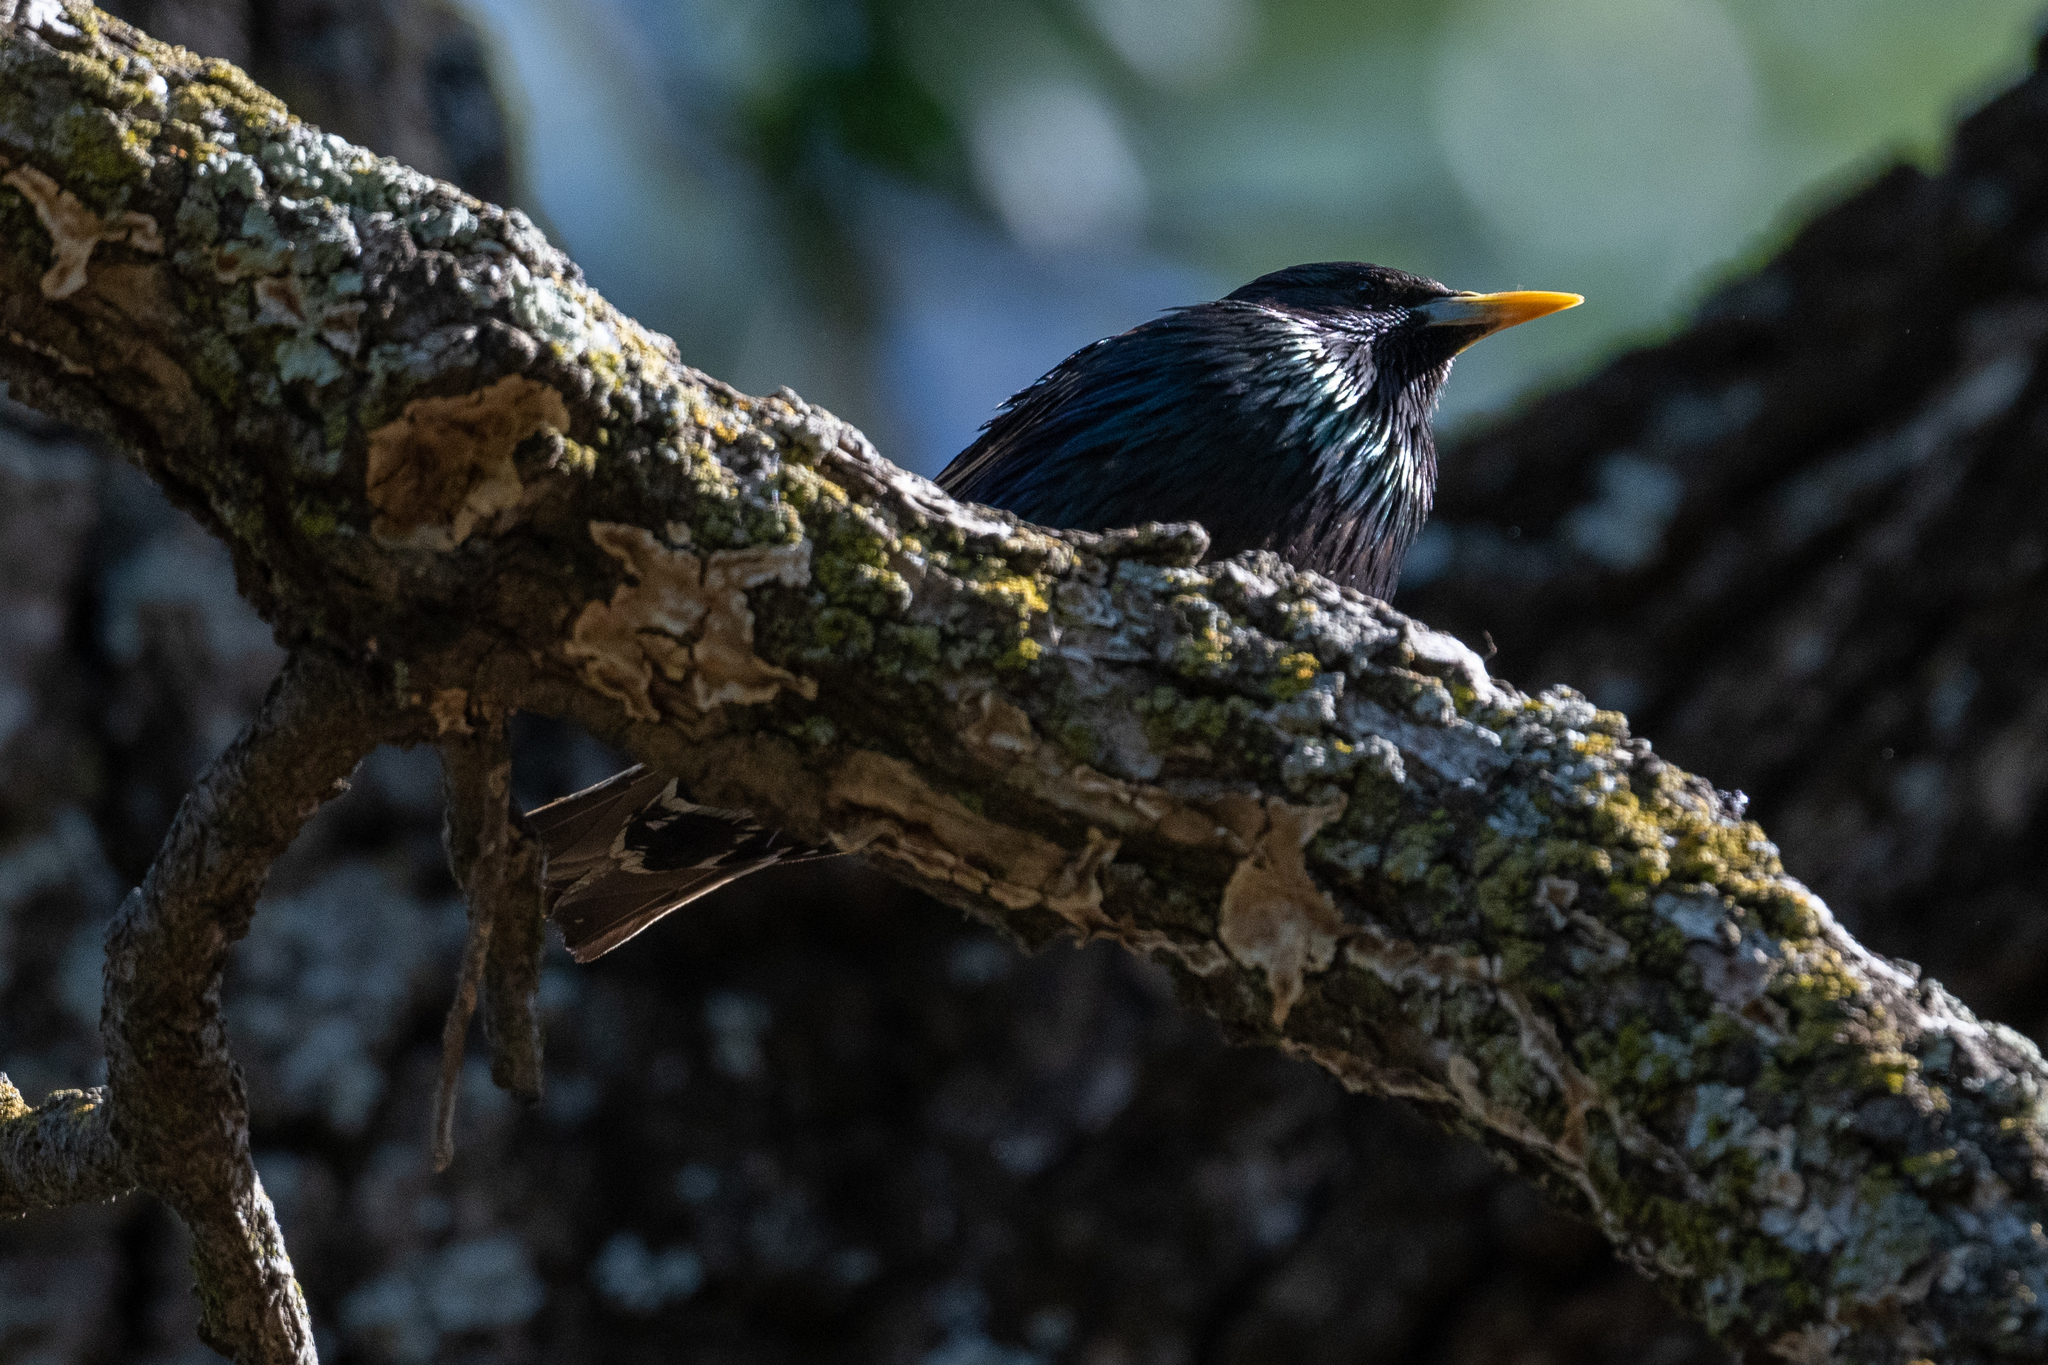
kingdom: Animalia
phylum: Chordata
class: Aves
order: Passeriformes
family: Sturnidae
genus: Sturnus
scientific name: Sturnus vulgaris
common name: Common starling
